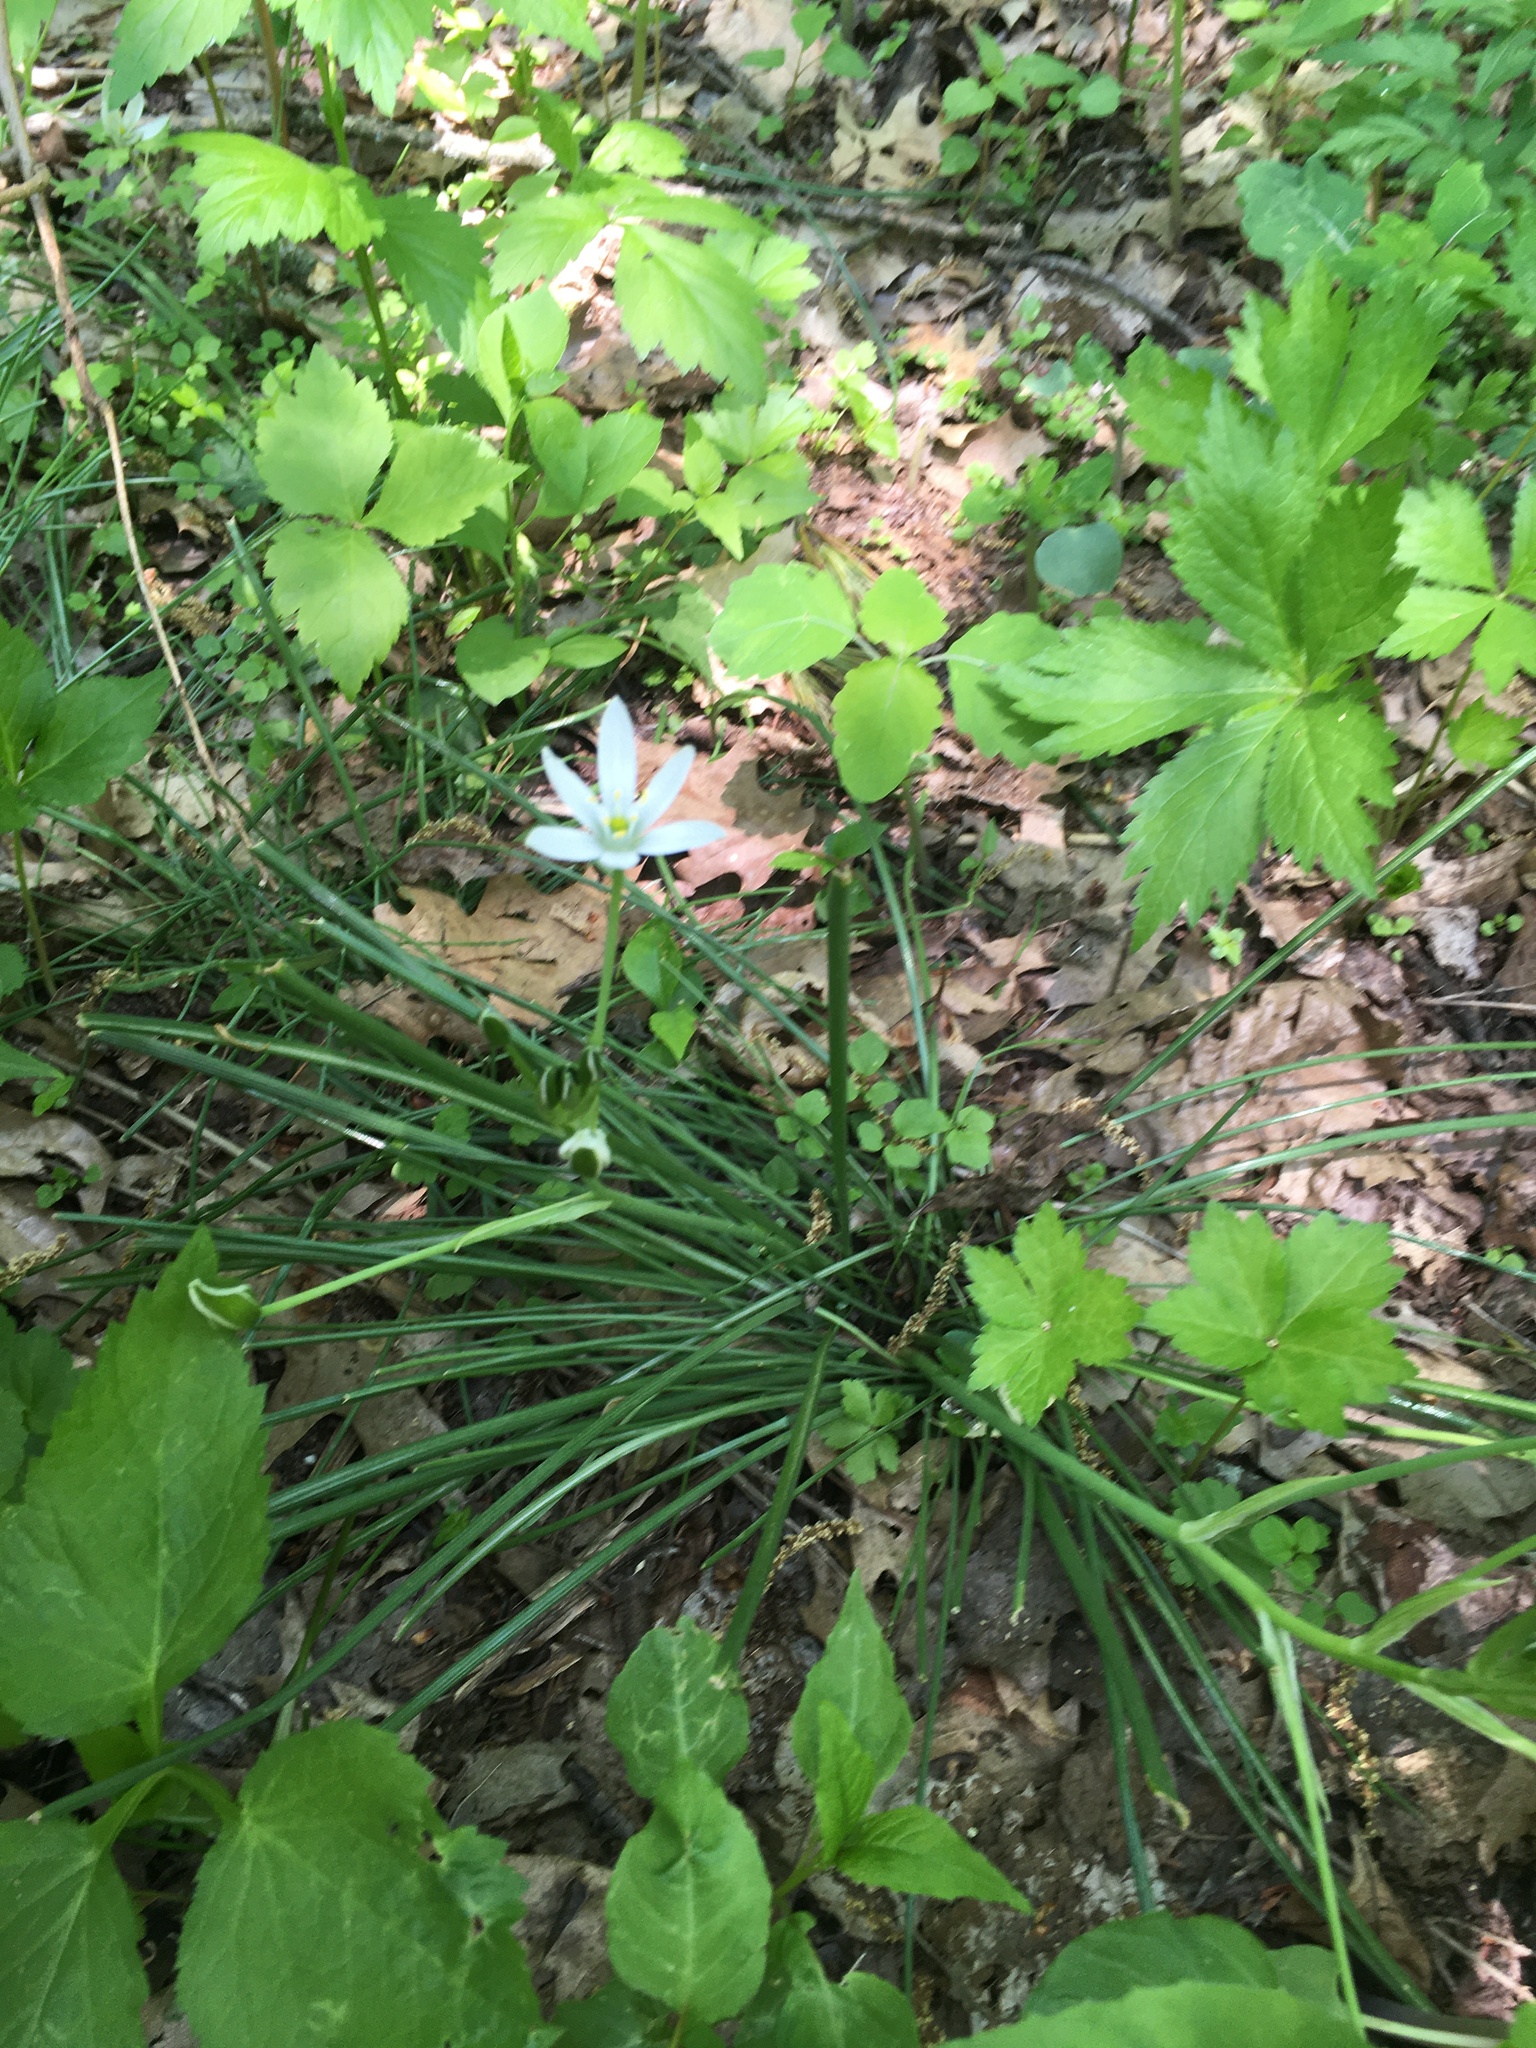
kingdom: Plantae
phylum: Tracheophyta
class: Liliopsida
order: Asparagales
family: Asparagaceae
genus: Ornithogalum
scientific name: Ornithogalum umbellatum
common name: Garden star-of-bethlehem
